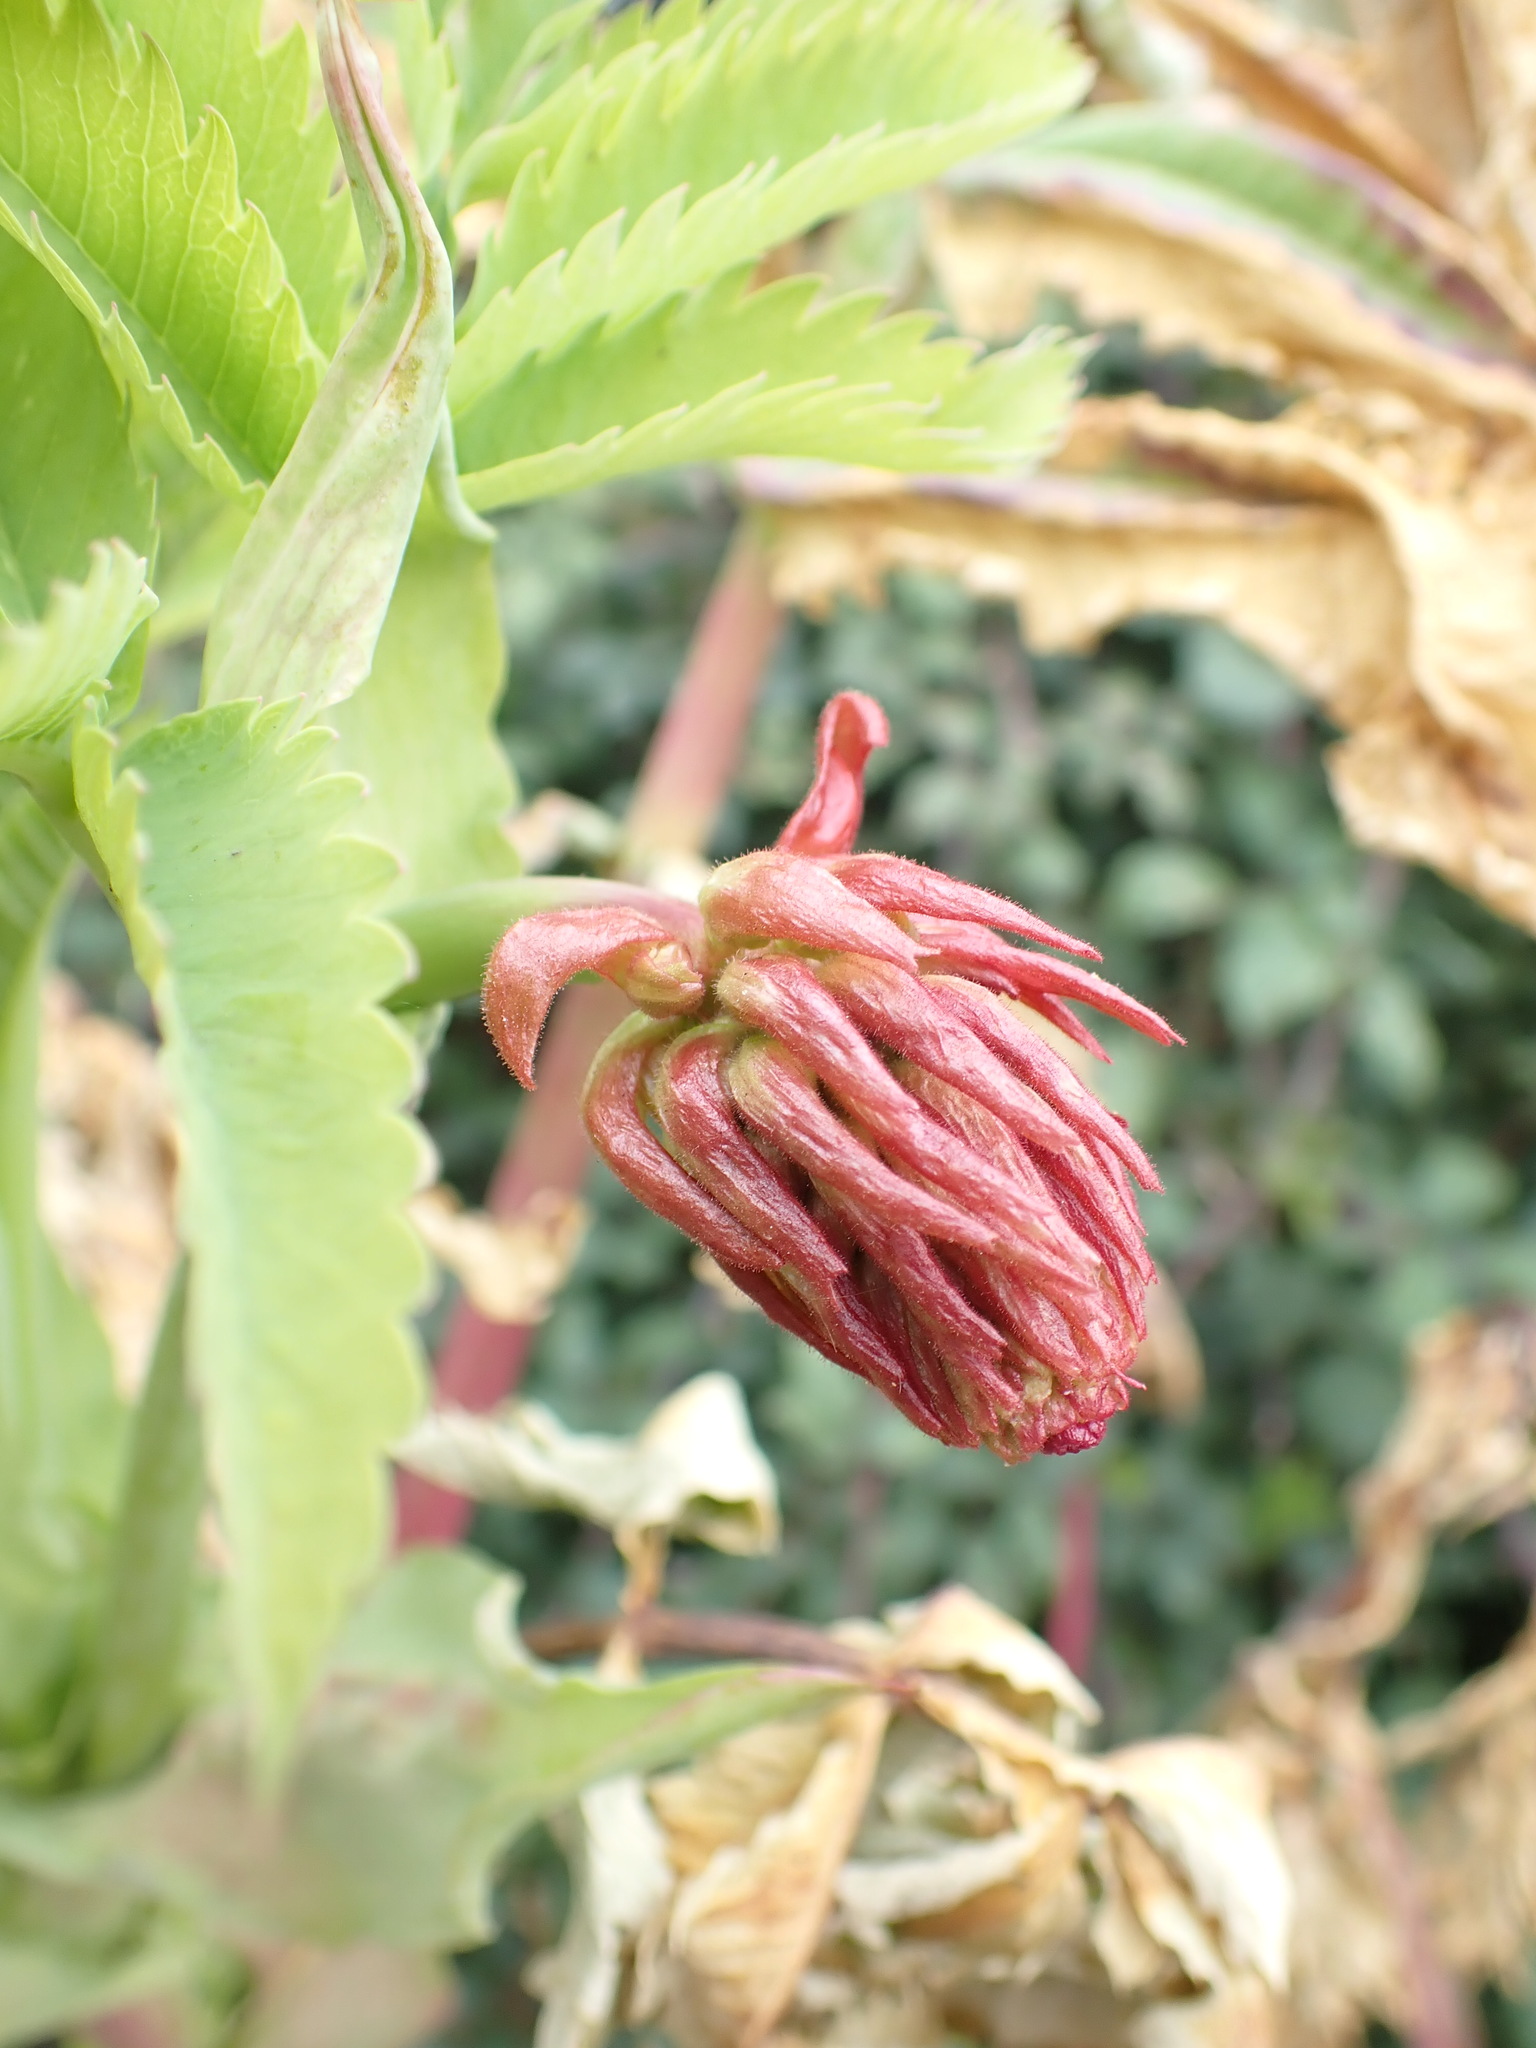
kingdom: Plantae
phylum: Tracheophyta
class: Magnoliopsida
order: Geraniales
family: Melianthaceae
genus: Melianthus
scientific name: Melianthus major
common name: Honey-flower
